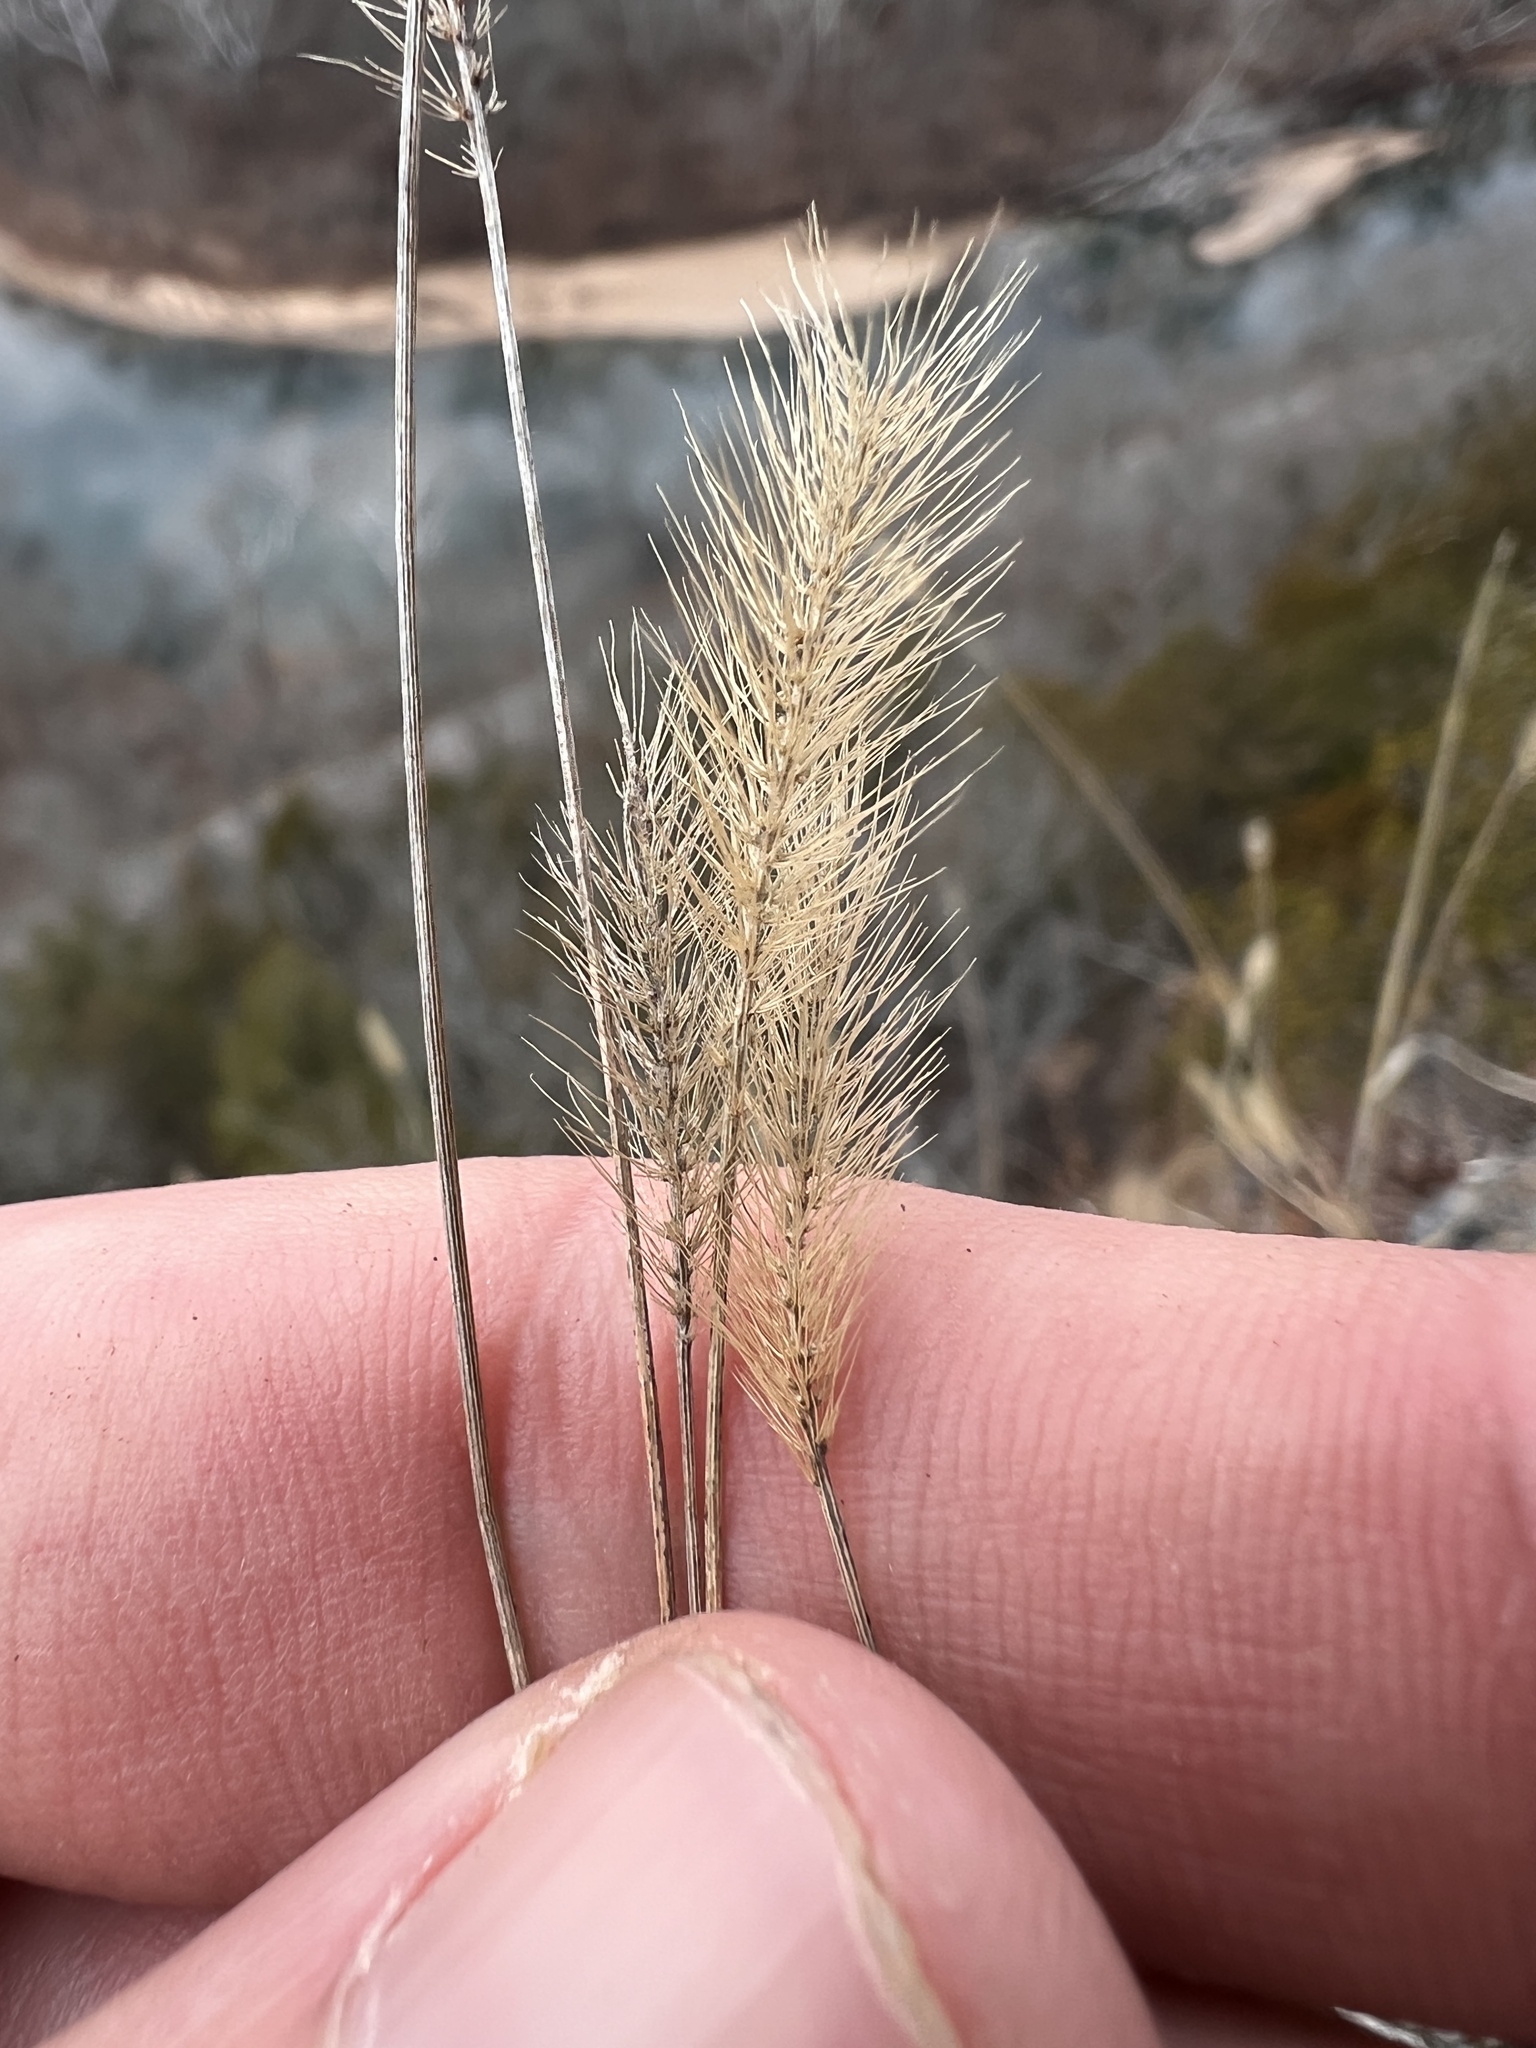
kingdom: Plantae
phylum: Tracheophyta
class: Liliopsida
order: Poales
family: Poaceae
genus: Setaria
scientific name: Setaria pumila
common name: Yellow bristle-grass
